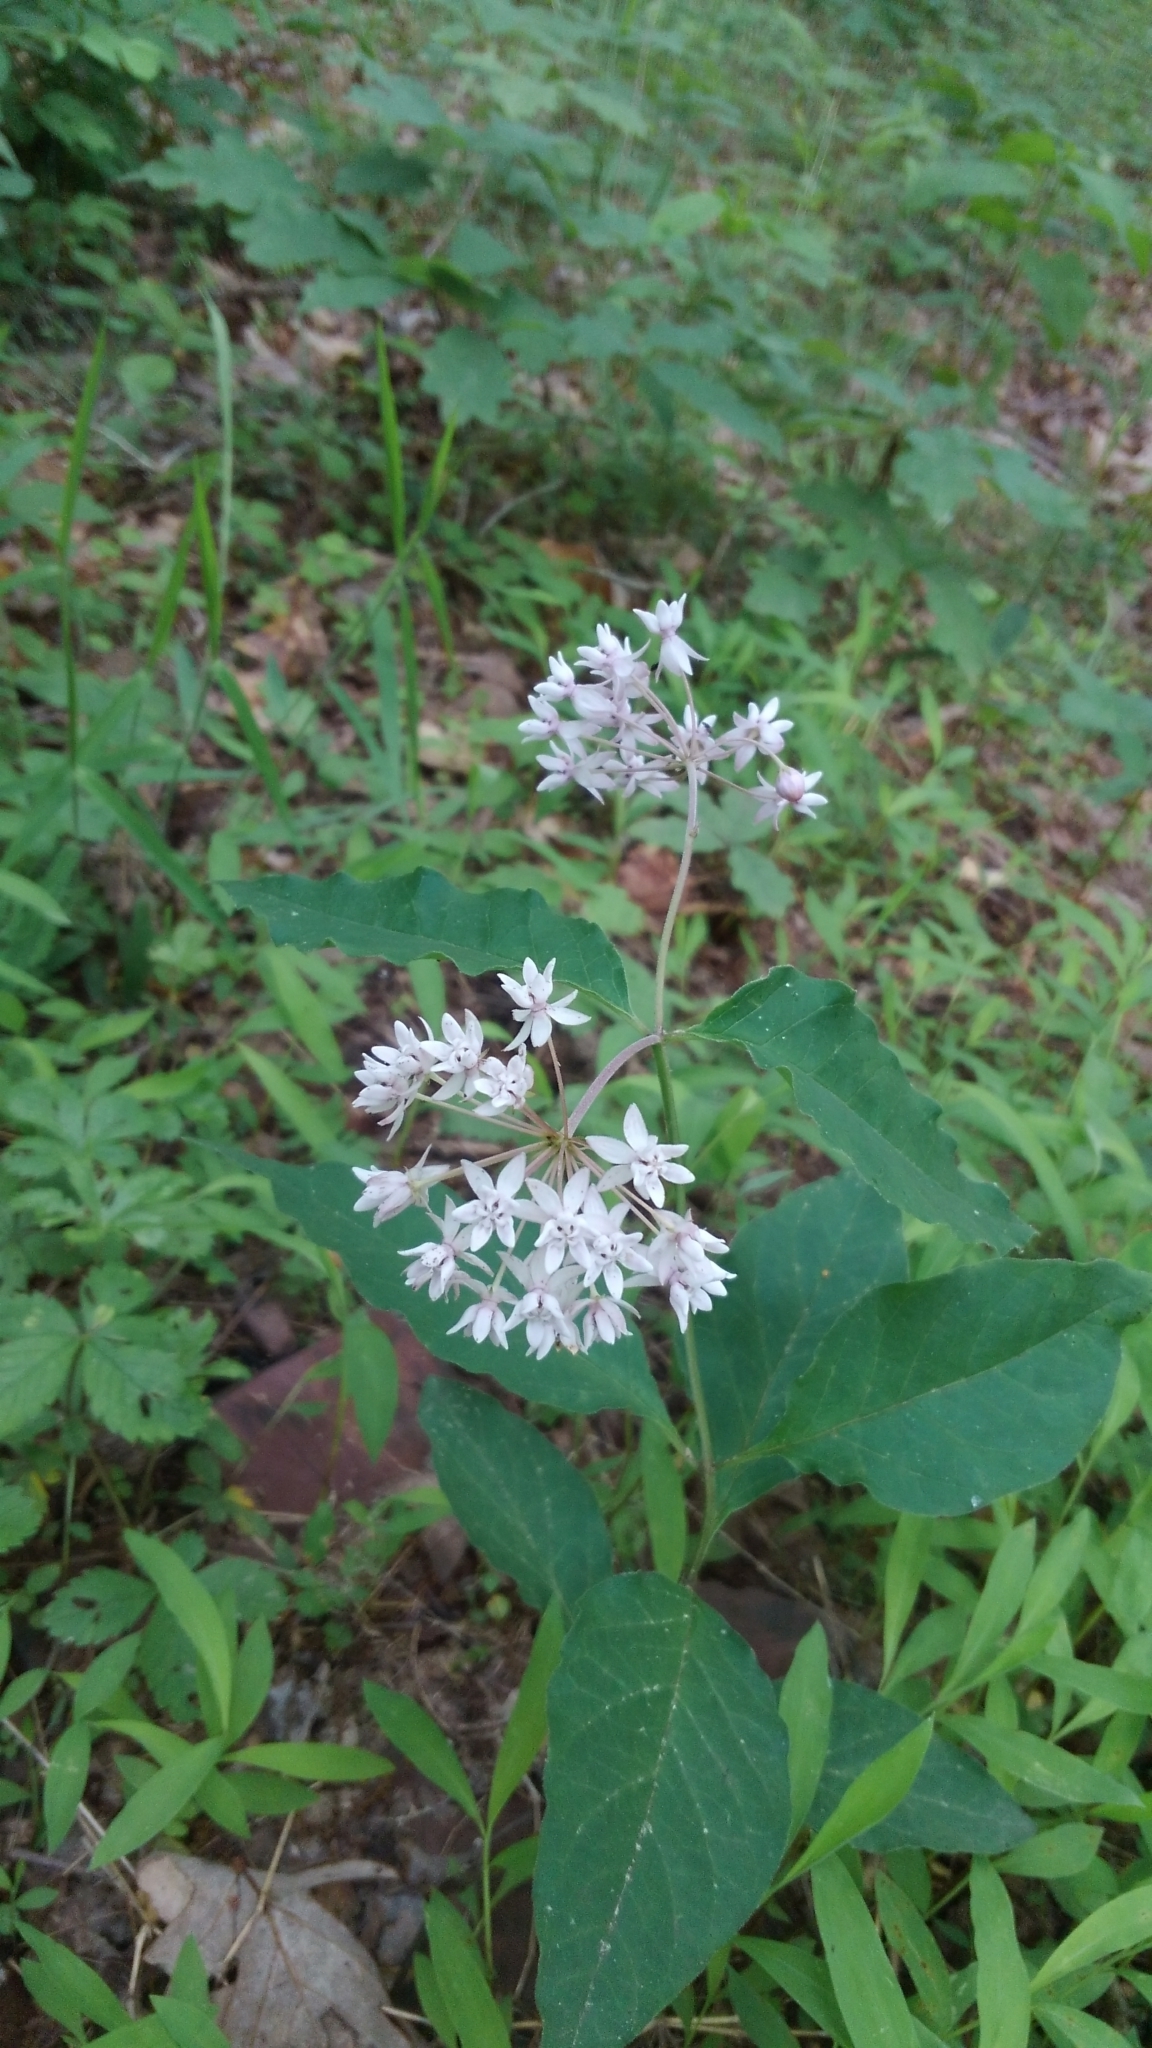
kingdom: Plantae
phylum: Tracheophyta
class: Magnoliopsida
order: Gentianales
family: Apocynaceae
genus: Asclepias
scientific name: Asclepias quadrifolia
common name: Whorled milkweed
